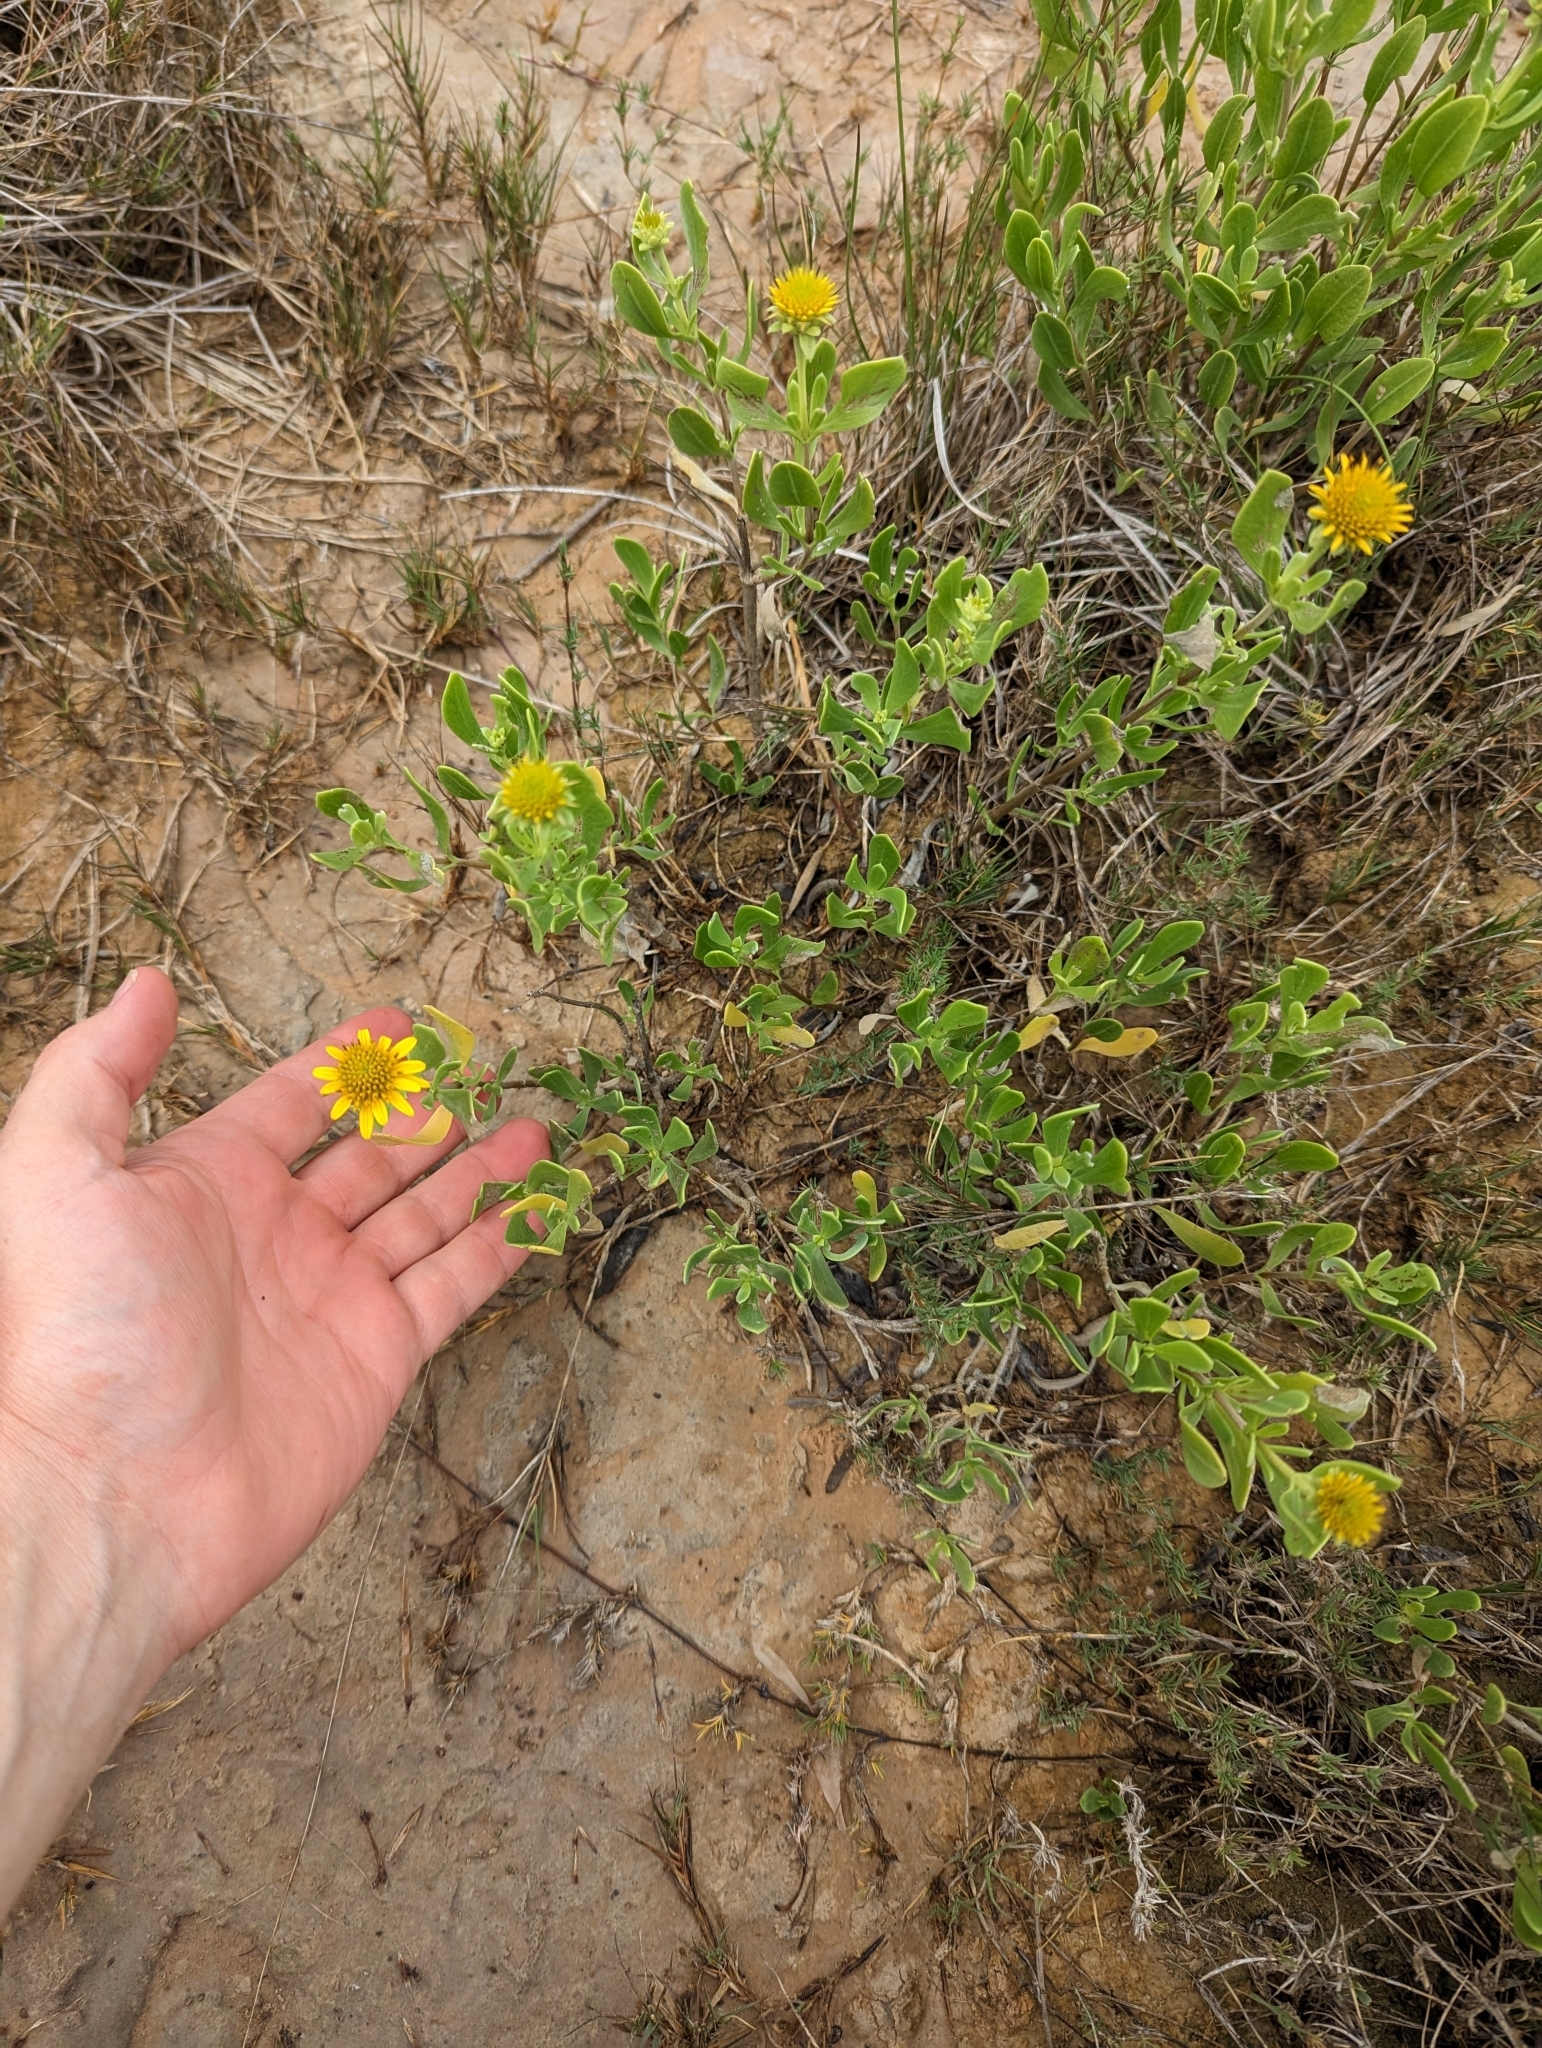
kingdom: Plantae
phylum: Tracheophyta
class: Magnoliopsida
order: Asterales
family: Asteraceae
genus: Borrichia
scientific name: Borrichia frutescens
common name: Sea oxeye
